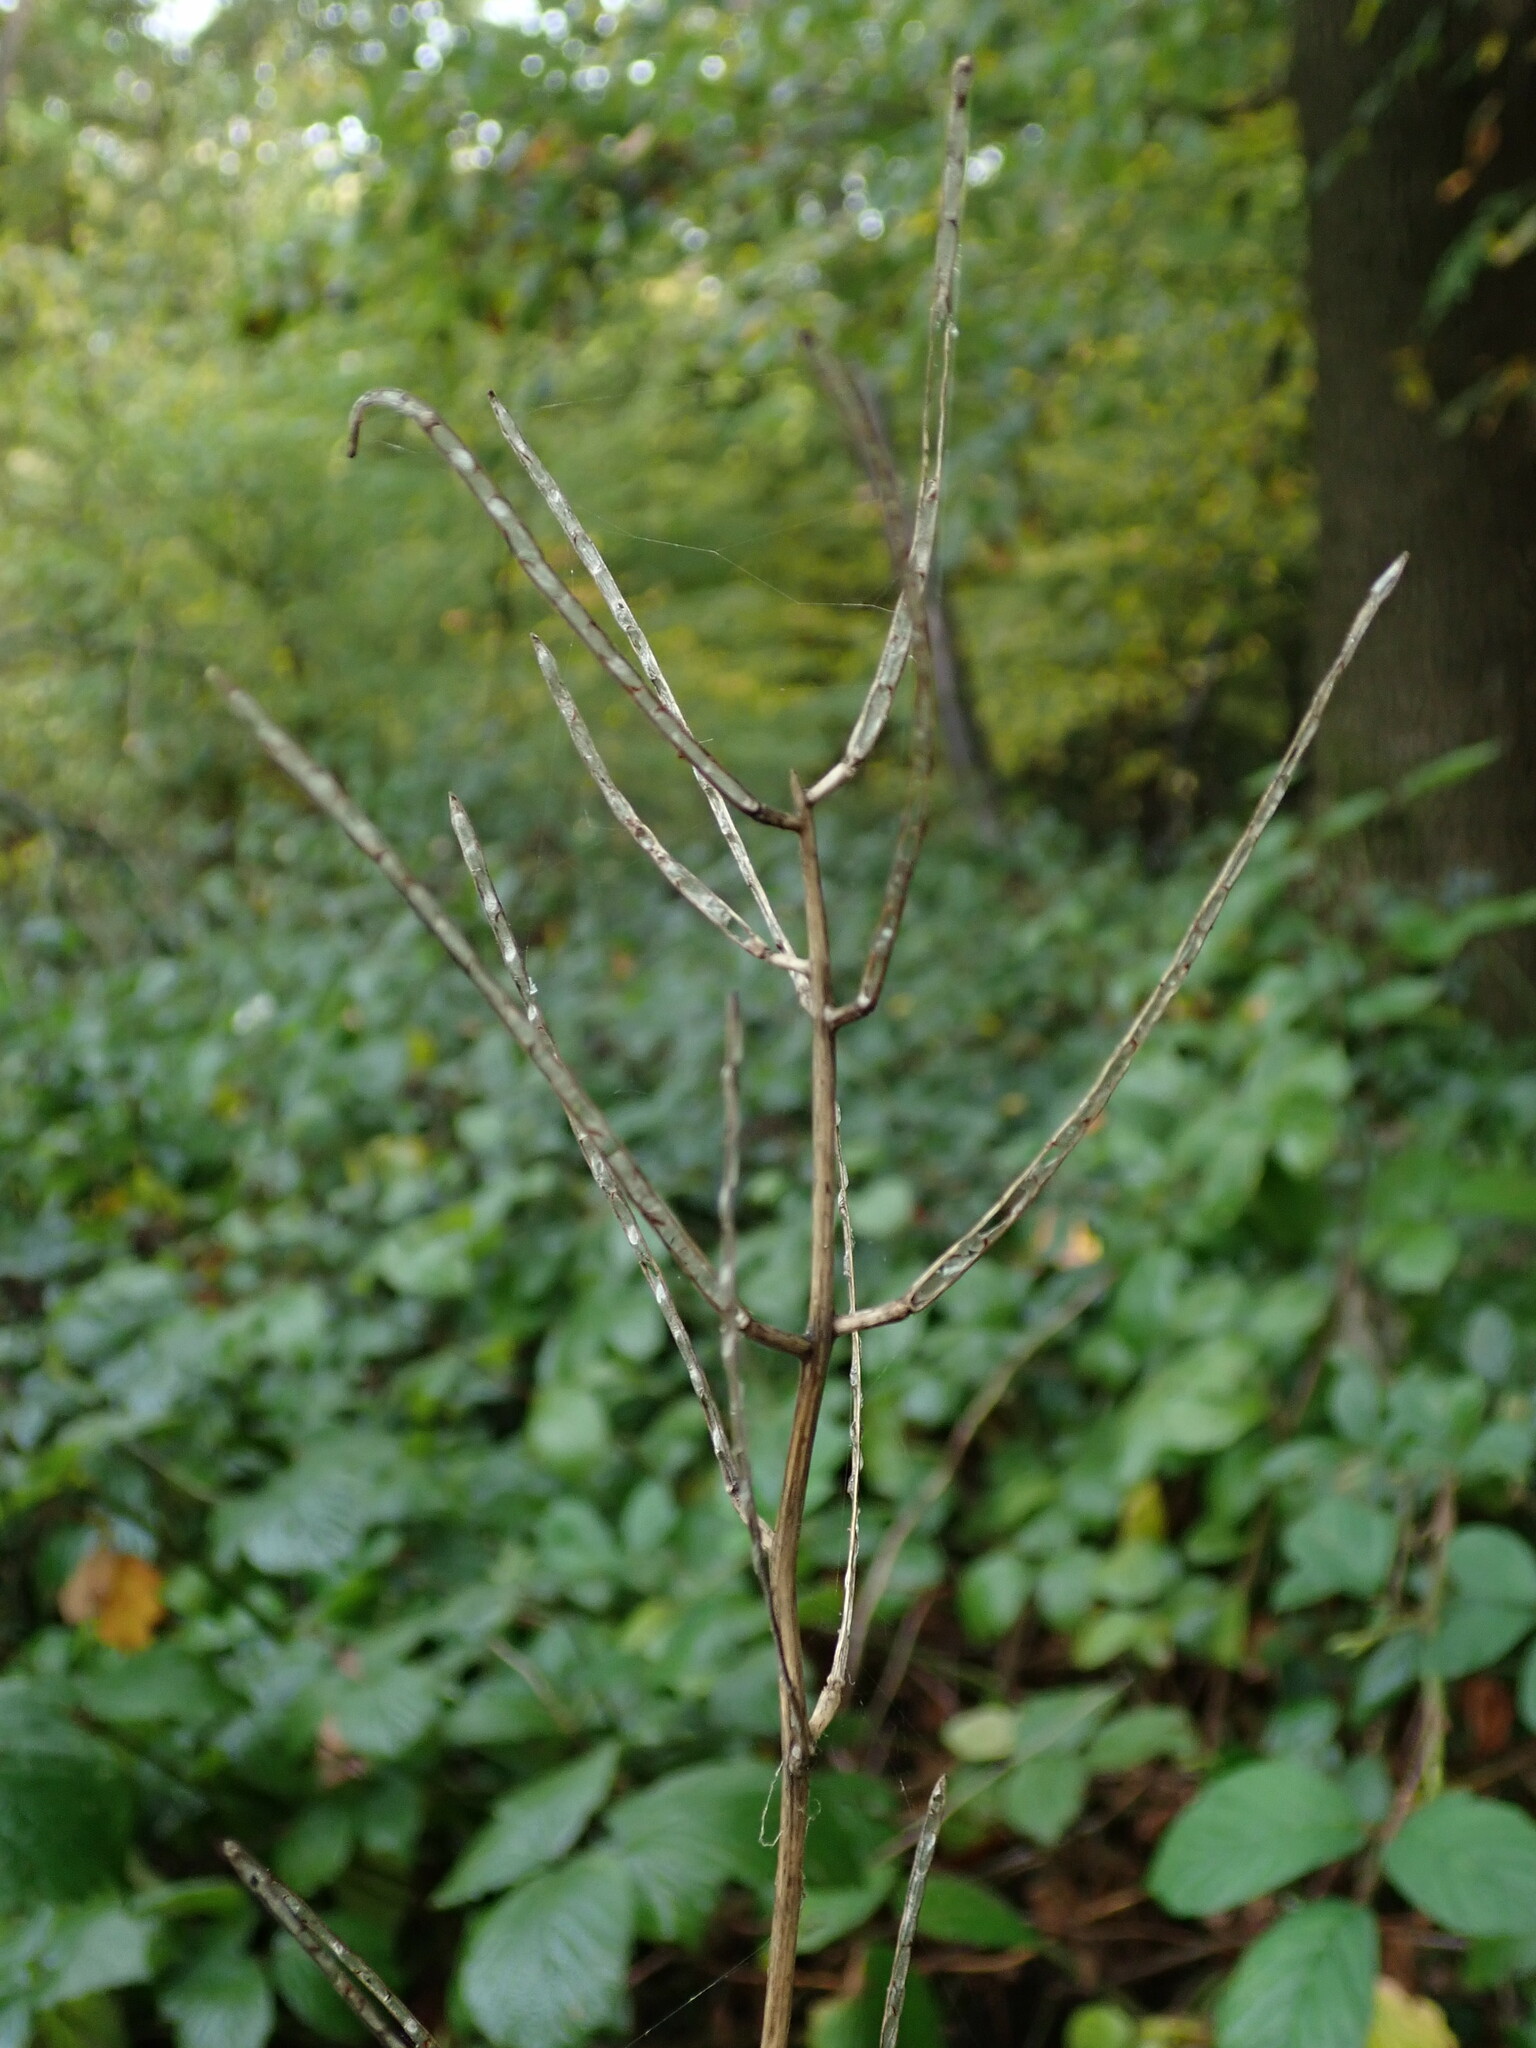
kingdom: Plantae
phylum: Tracheophyta
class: Magnoliopsida
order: Brassicales
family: Brassicaceae
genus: Alliaria
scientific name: Alliaria petiolata
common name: Garlic mustard
